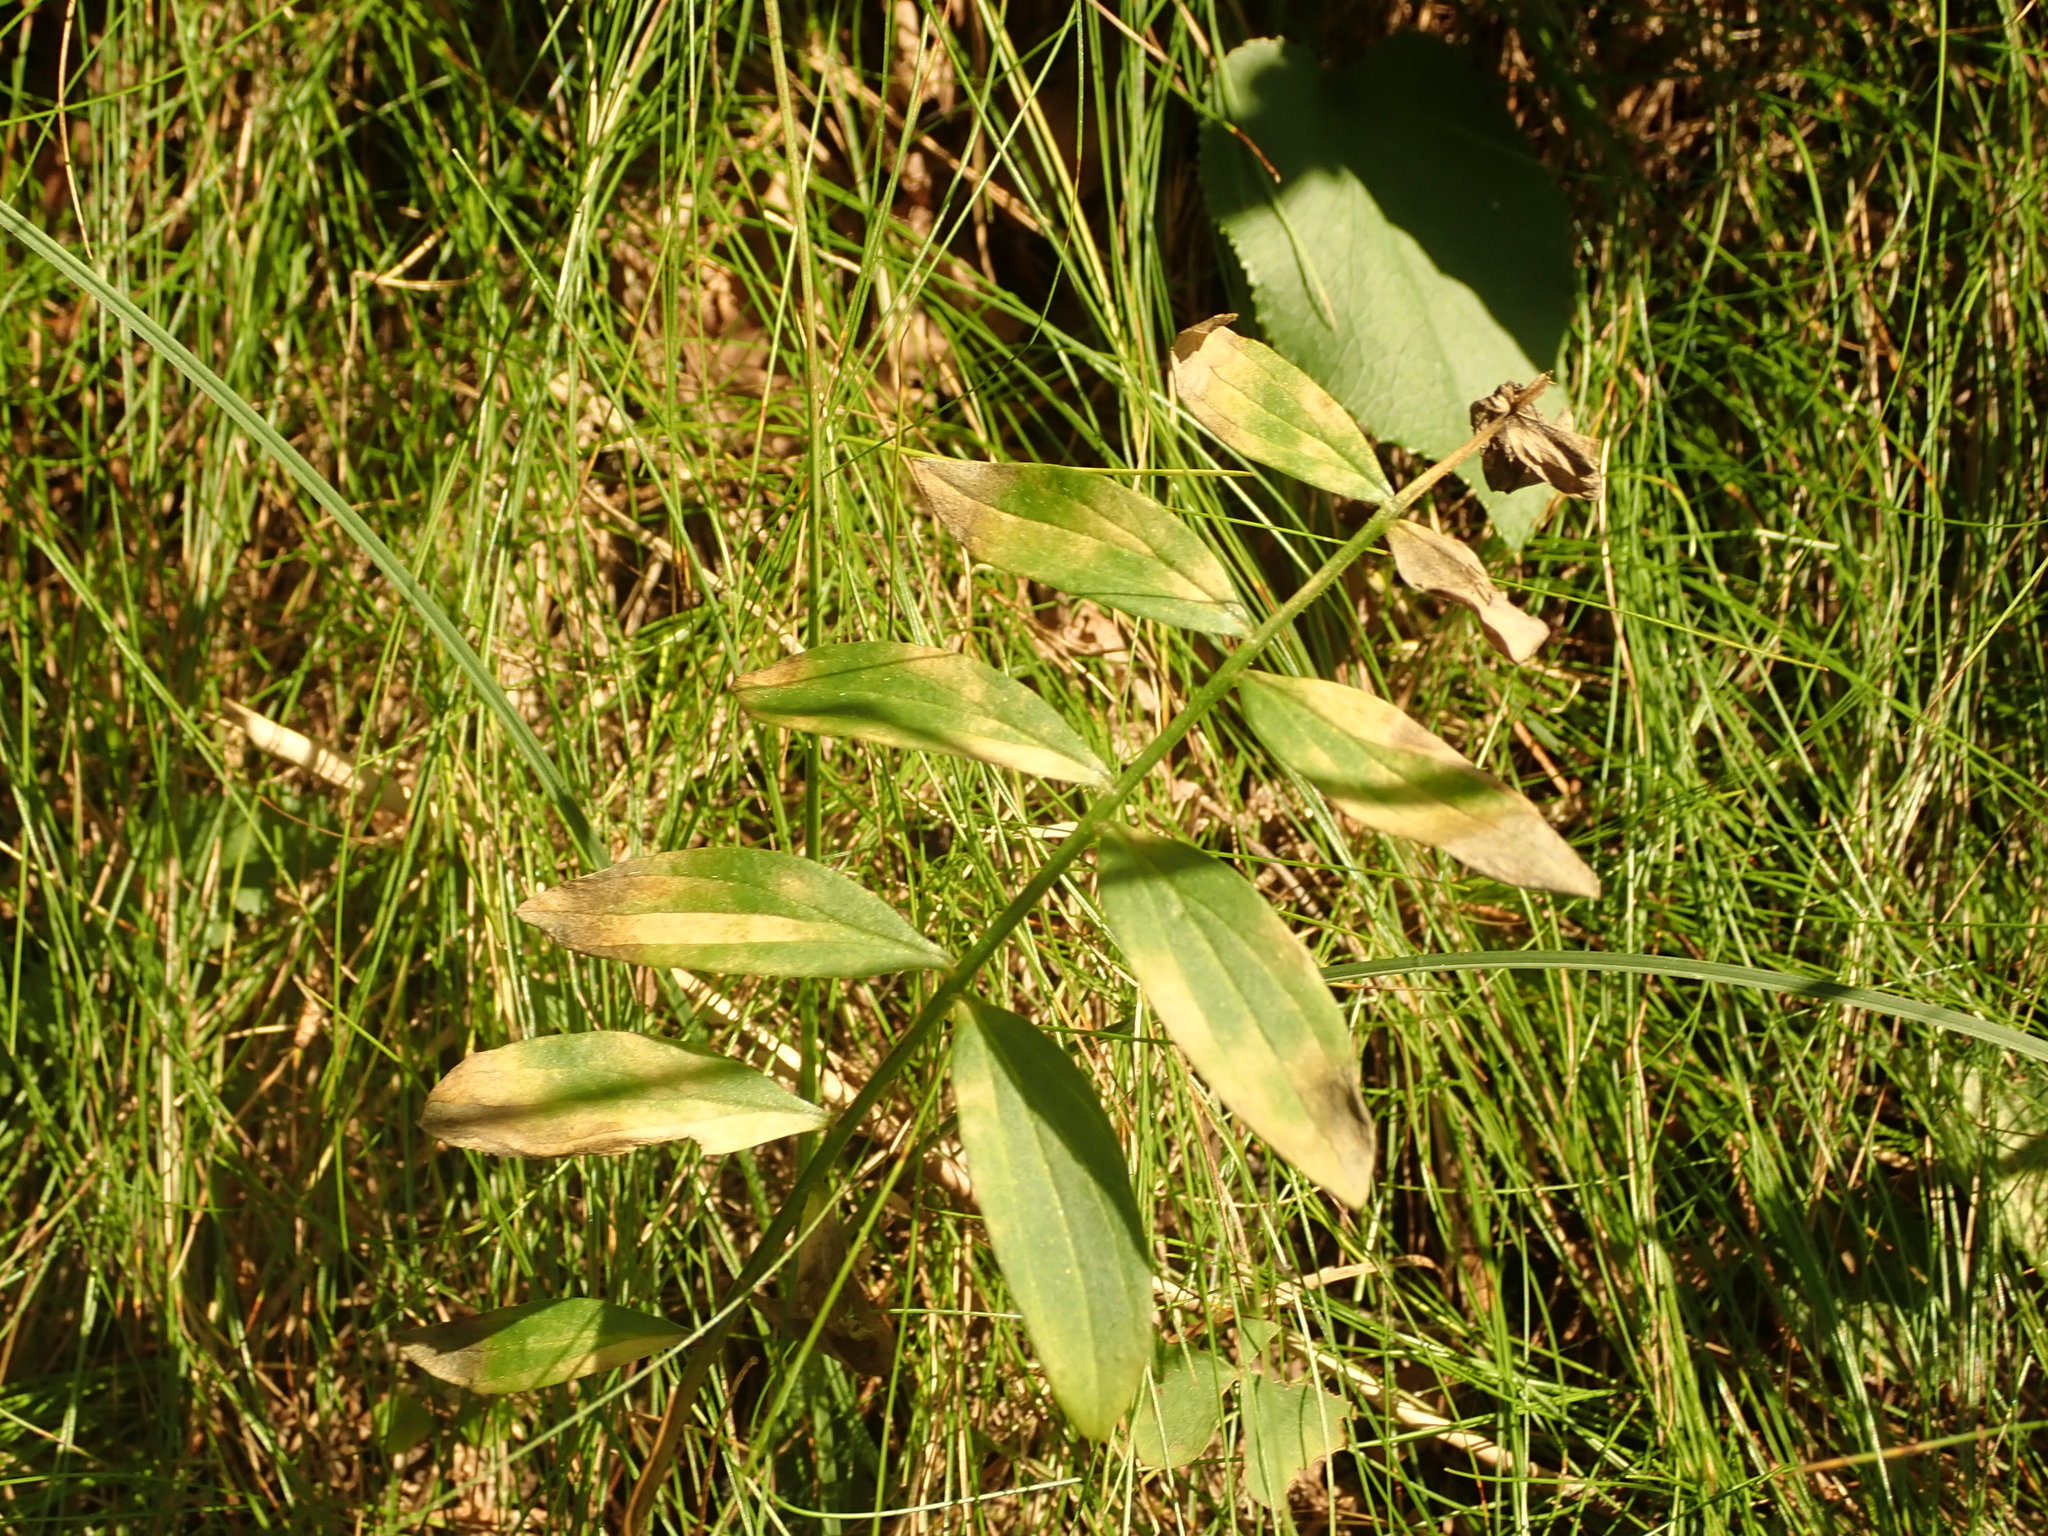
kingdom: Plantae
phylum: Tracheophyta
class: Magnoliopsida
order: Ericales
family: Polemoniaceae
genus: Polemonium
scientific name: Polemonium reptans
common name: Creeping jacob's-ladder
